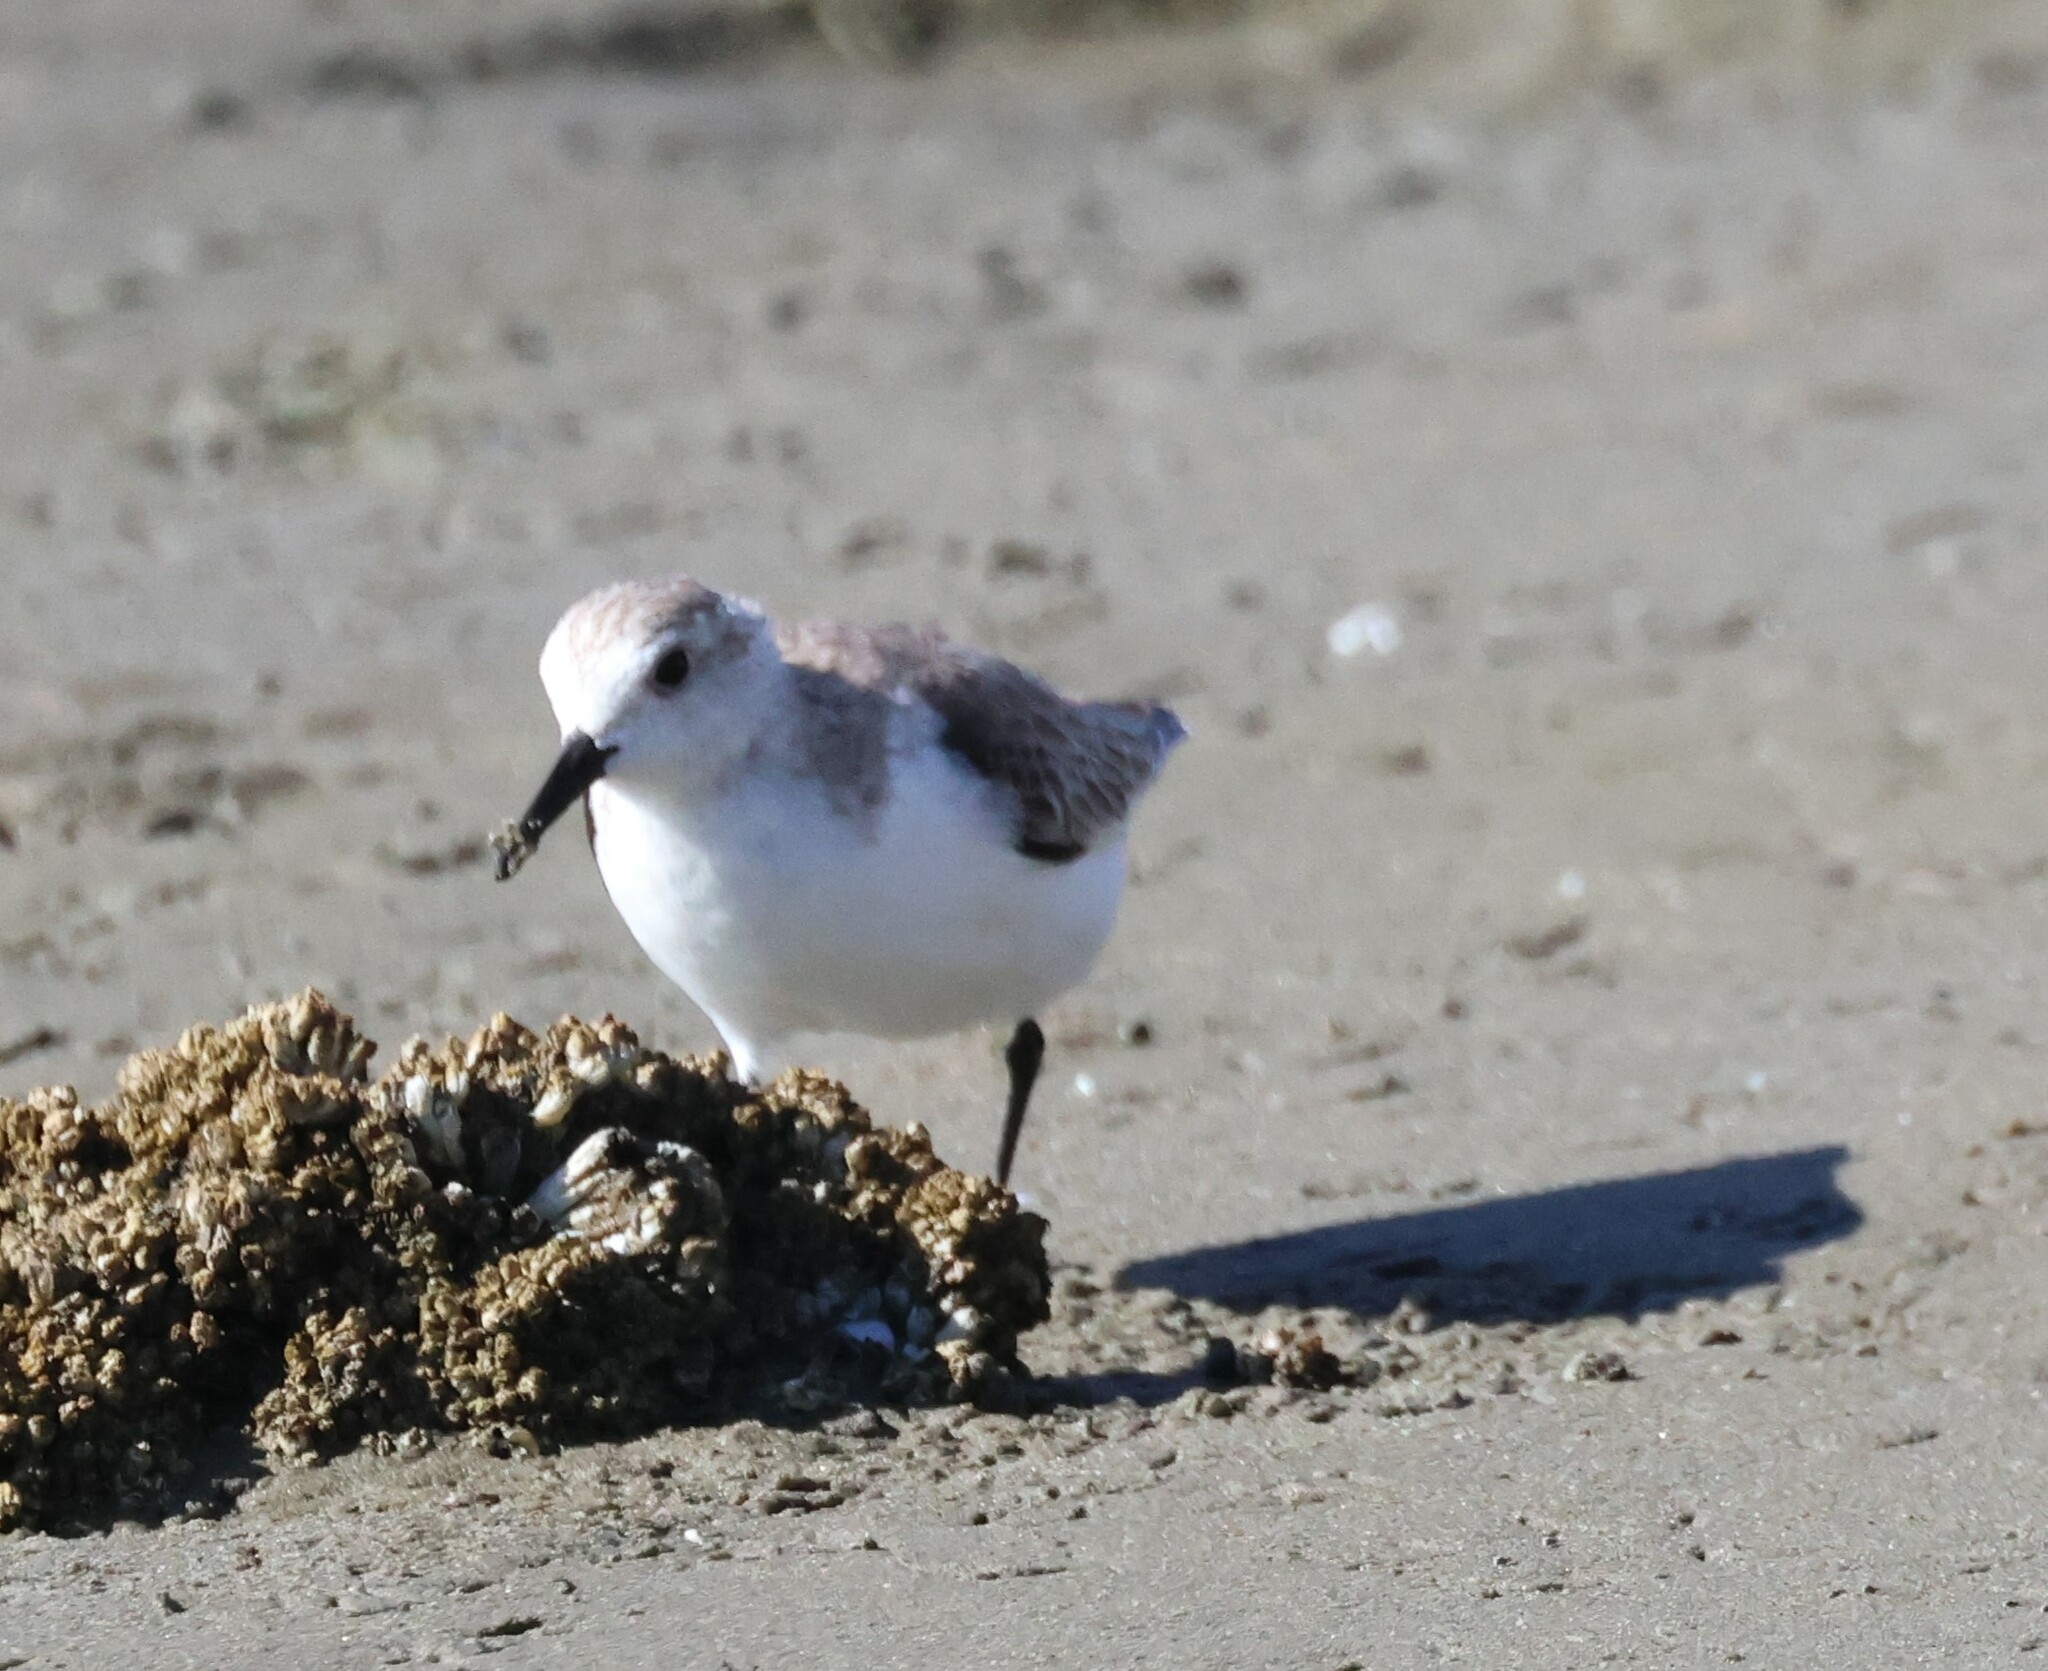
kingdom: Animalia
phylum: Chordata
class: Aves
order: Charadriiformes
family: Scolopacidae
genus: Calidris
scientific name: Calidris alba
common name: Sanderling
